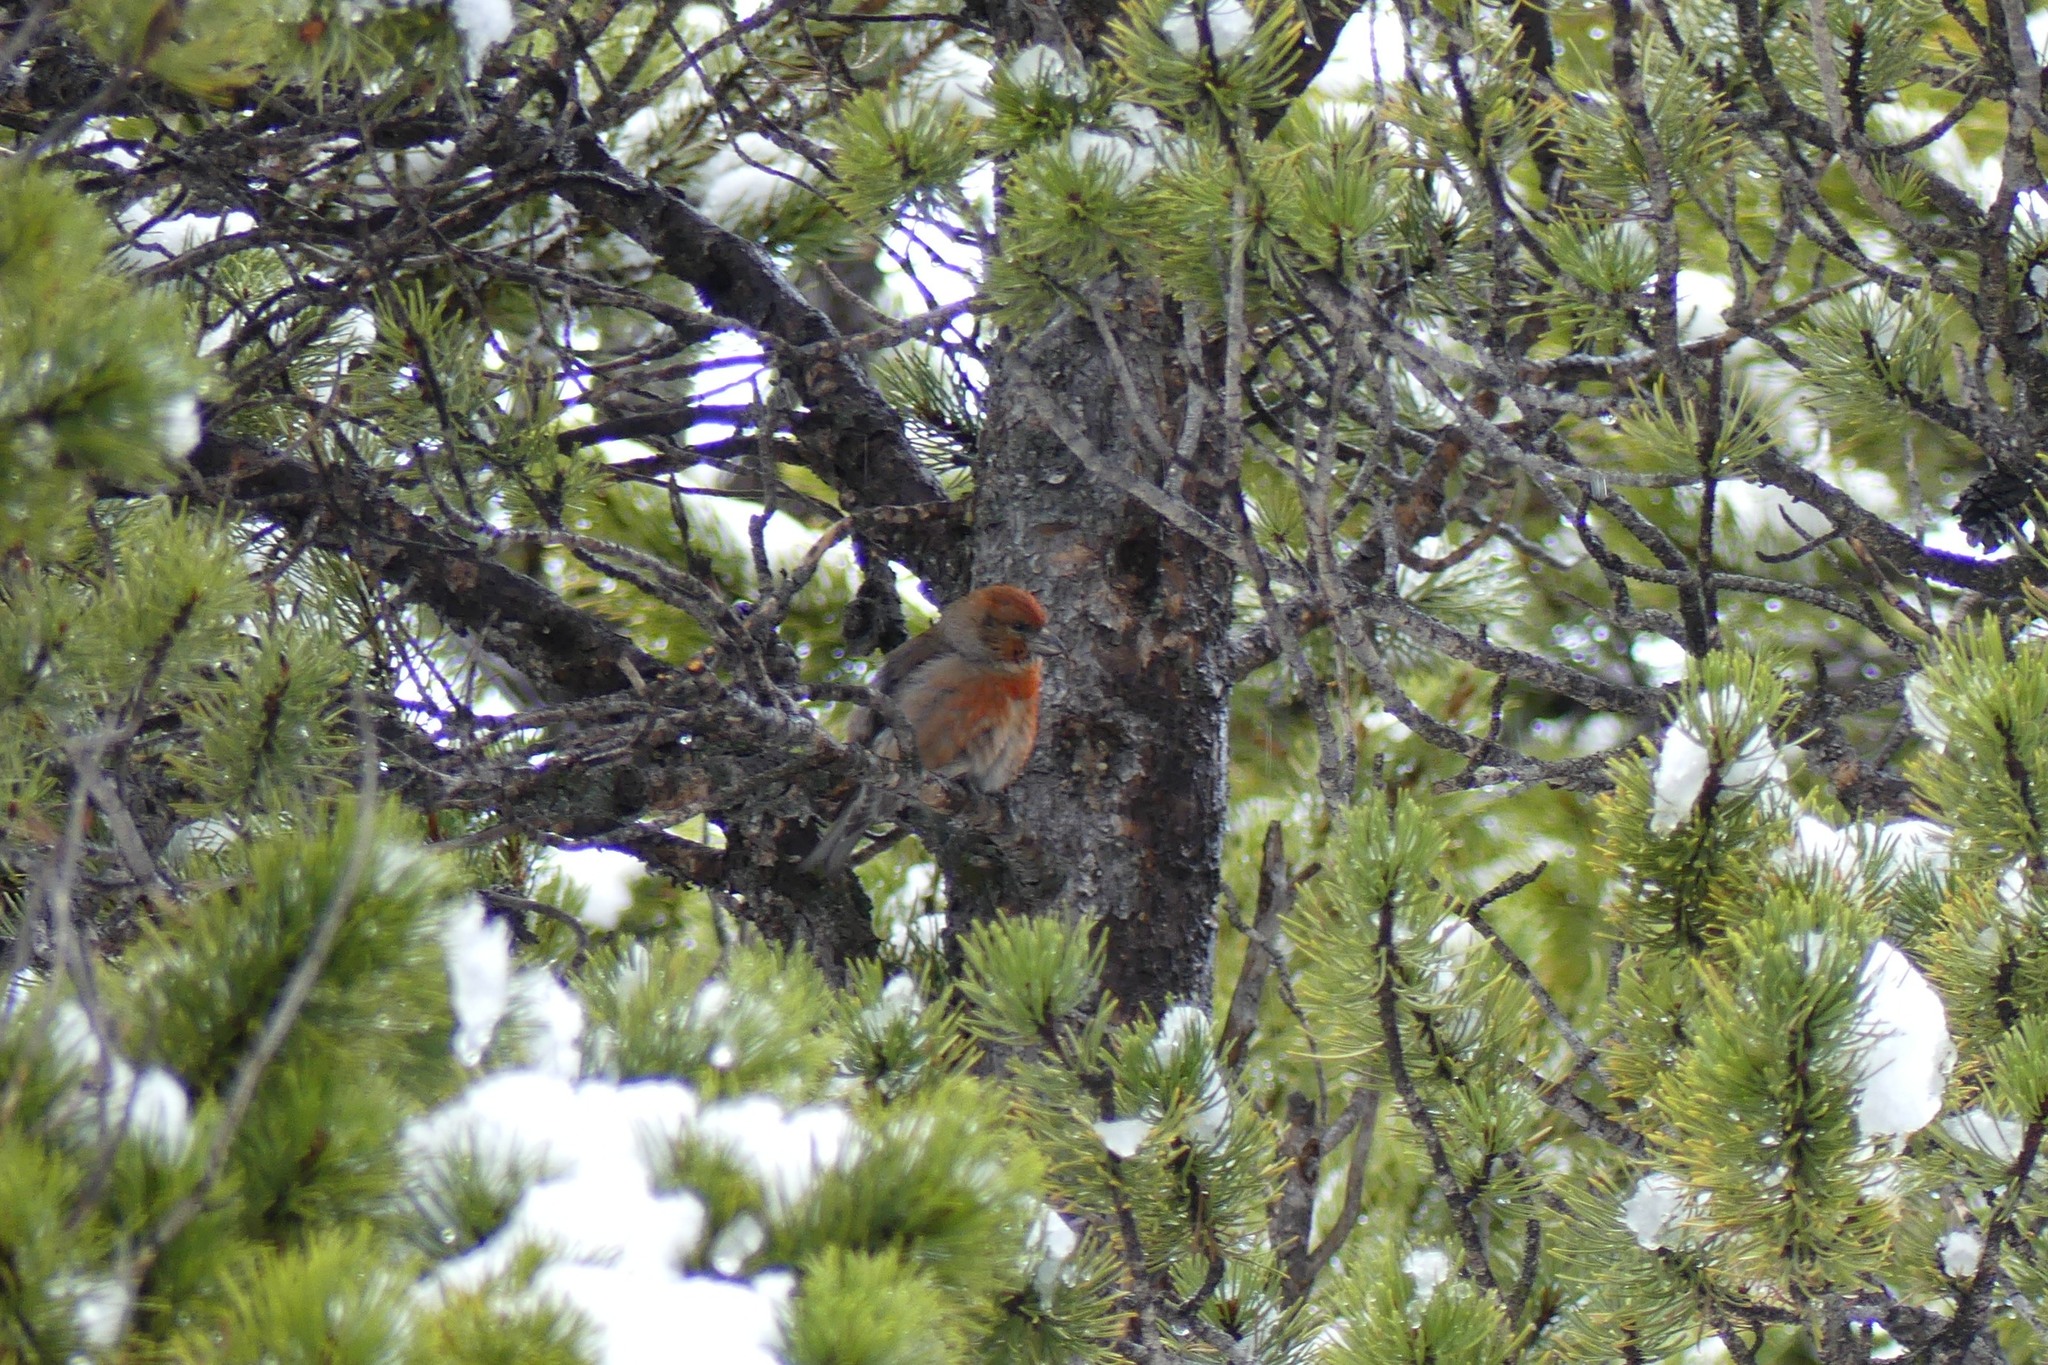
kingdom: Animalia
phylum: Chordata
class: Aves
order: Passeriformes
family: Fringillidae
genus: Loxia
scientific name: Loxia curvirostra
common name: Red crossbill
